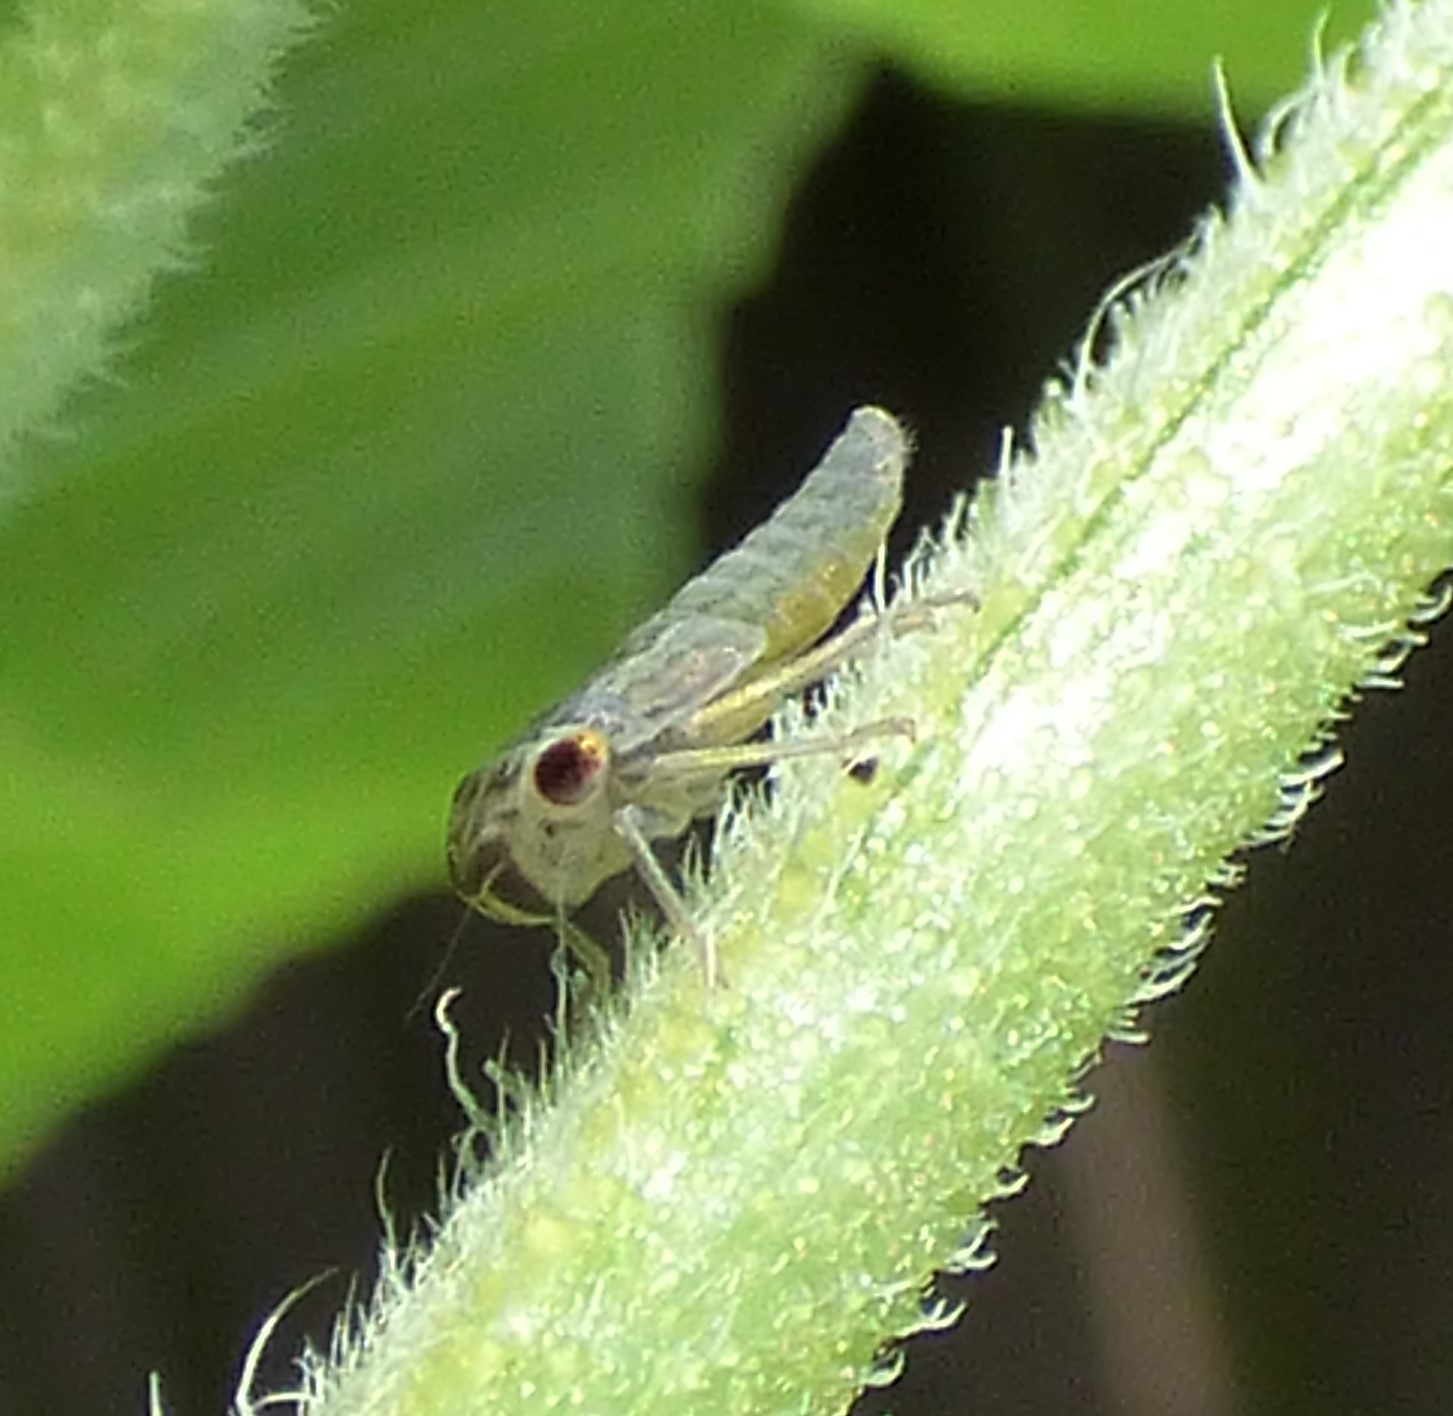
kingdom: Animalia
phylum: Arthropoda
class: Insecta
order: Hemiptera
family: Cicadellidae
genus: Oncometopia
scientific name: Oncometopia orbona
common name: Broad-headed sharpshooter
